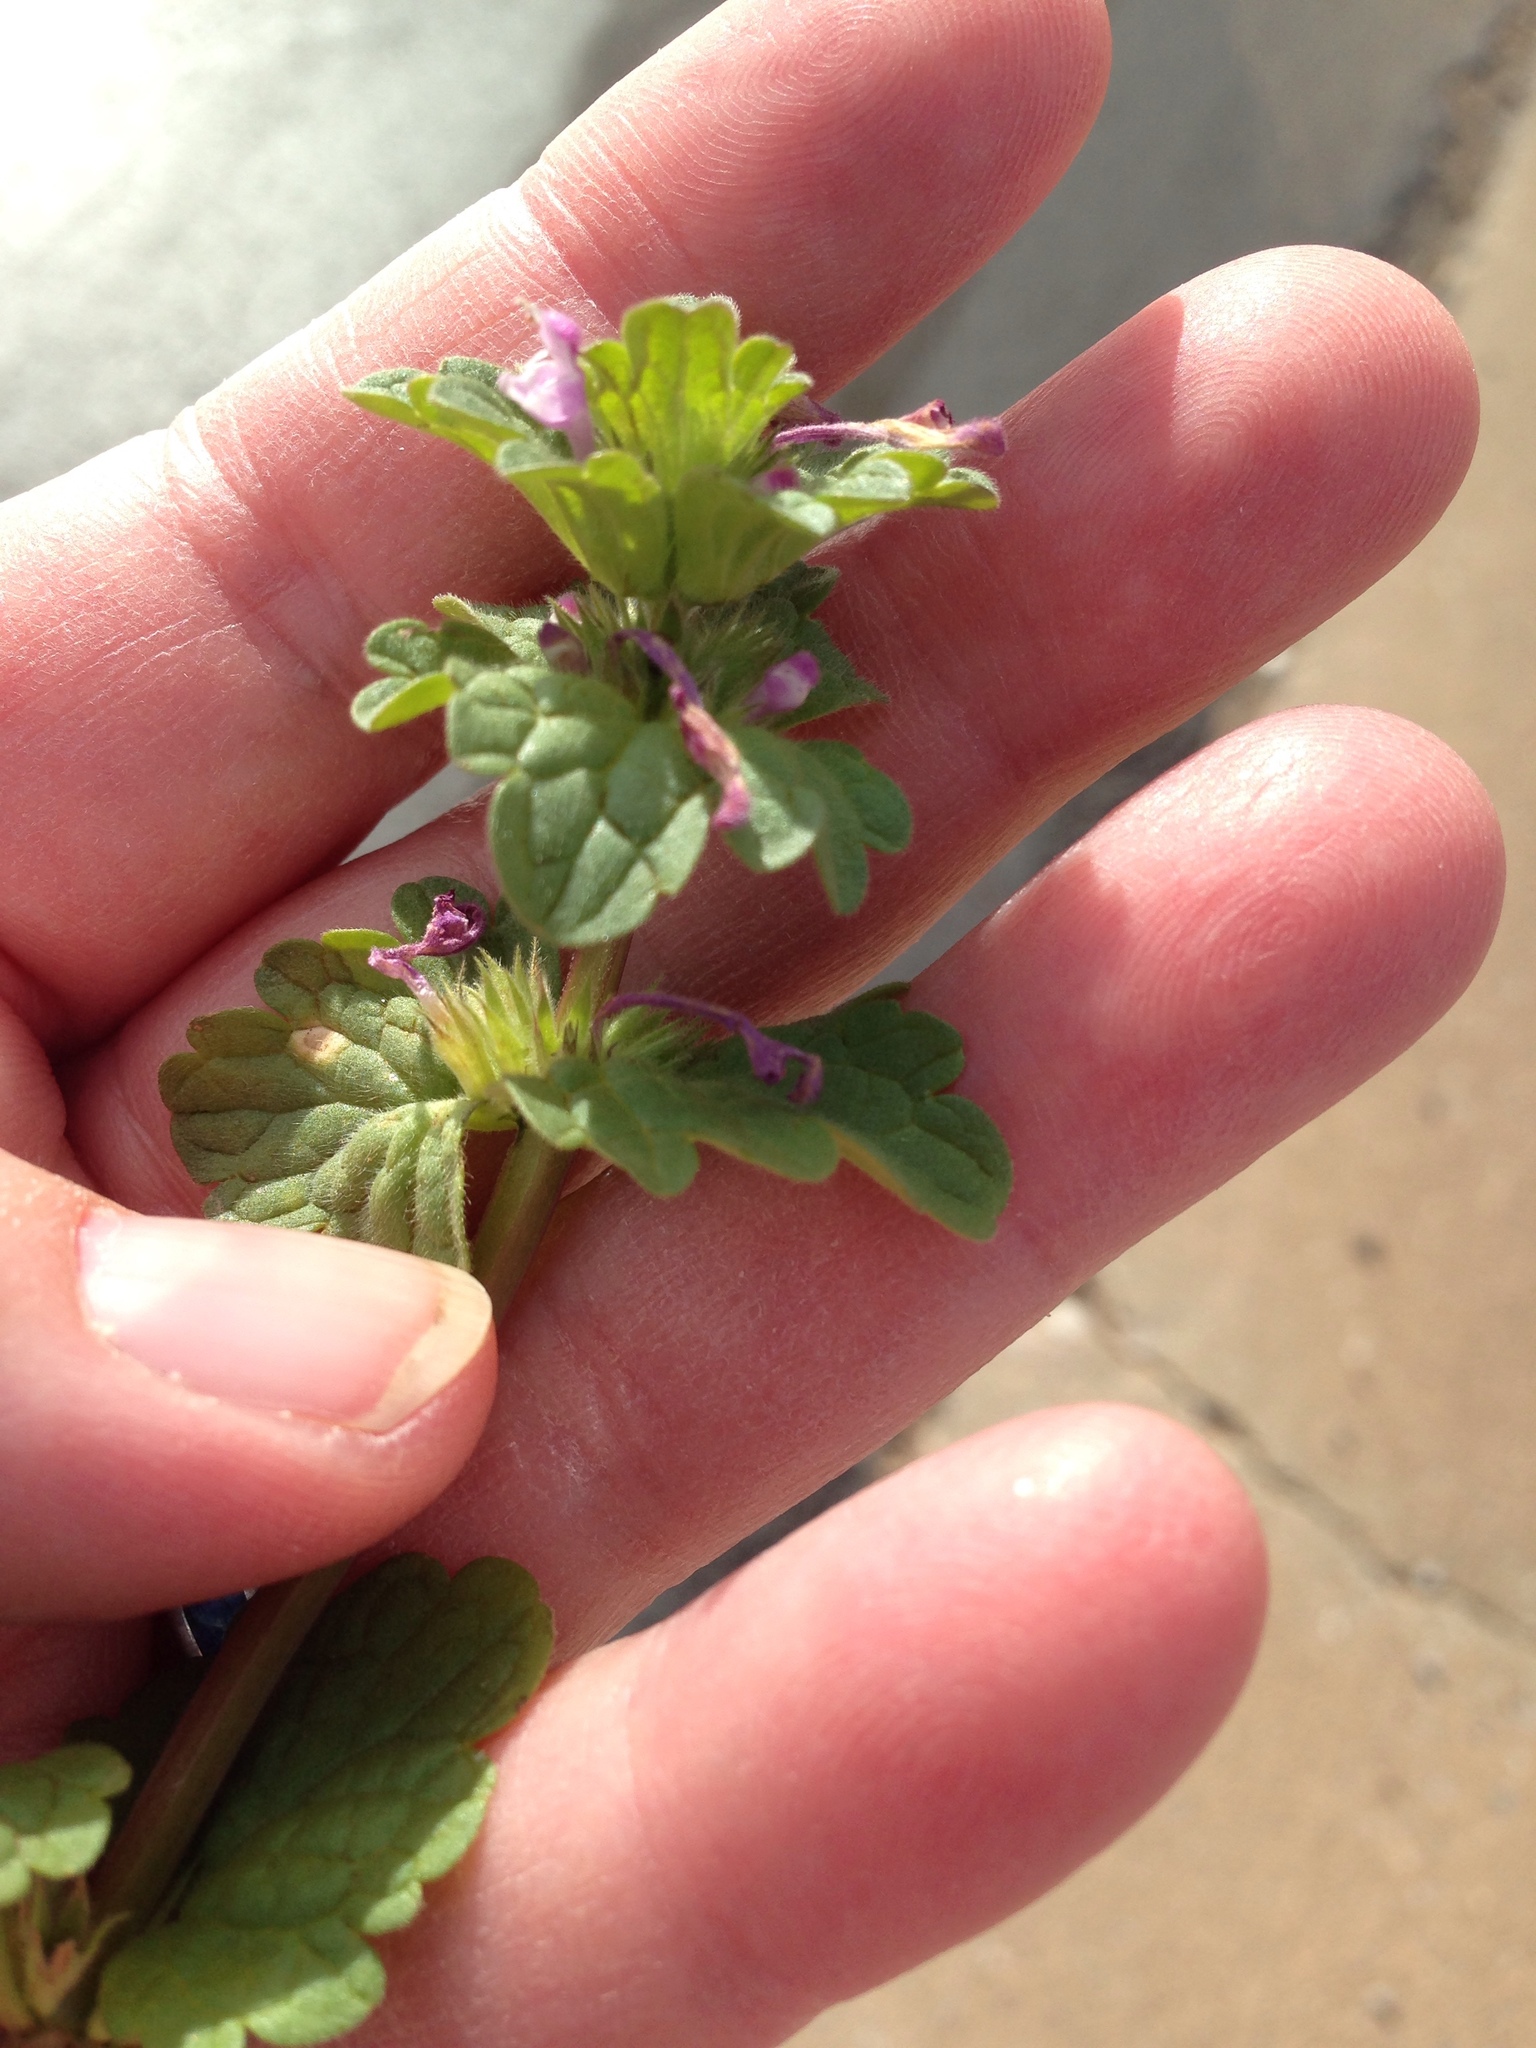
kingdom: Plantae
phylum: Tracheophyta
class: Magnoliopsida
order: Lamiales
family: Lamiaceae
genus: Lamium
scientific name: Lamium amplexicaule
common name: Henbit dead-nettle
